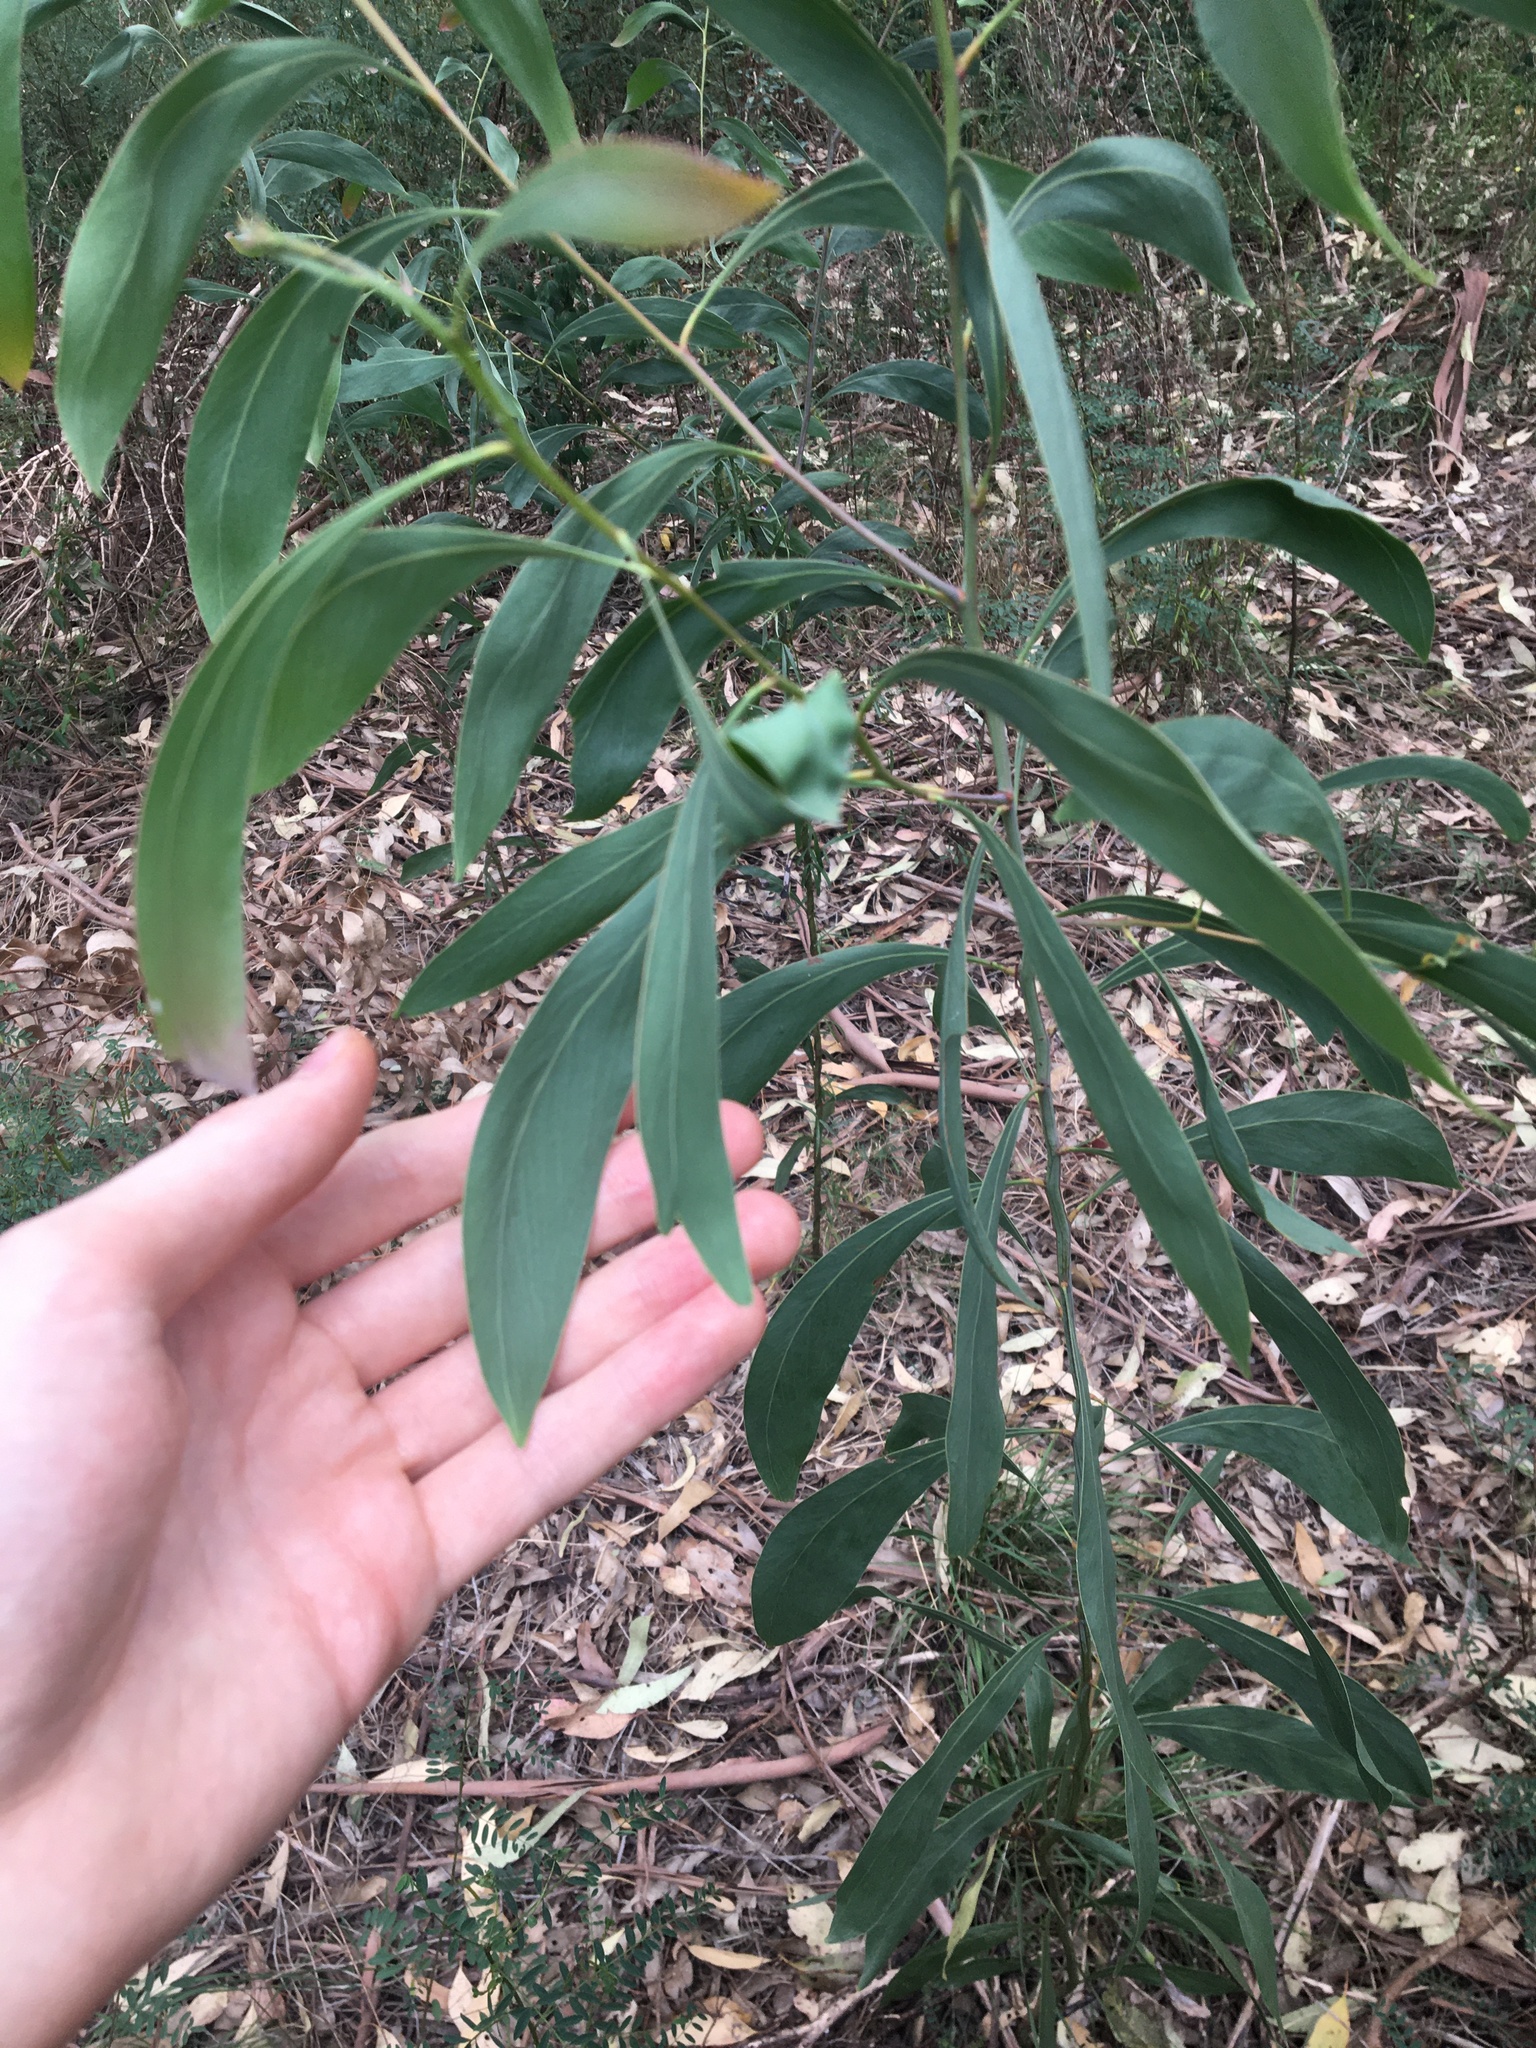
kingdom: Plantae
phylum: Tracheophyta
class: Magnoliopsida
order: Fabales
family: Fabaceae
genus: Acacia
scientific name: Acacia falcata
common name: Burra acacia
